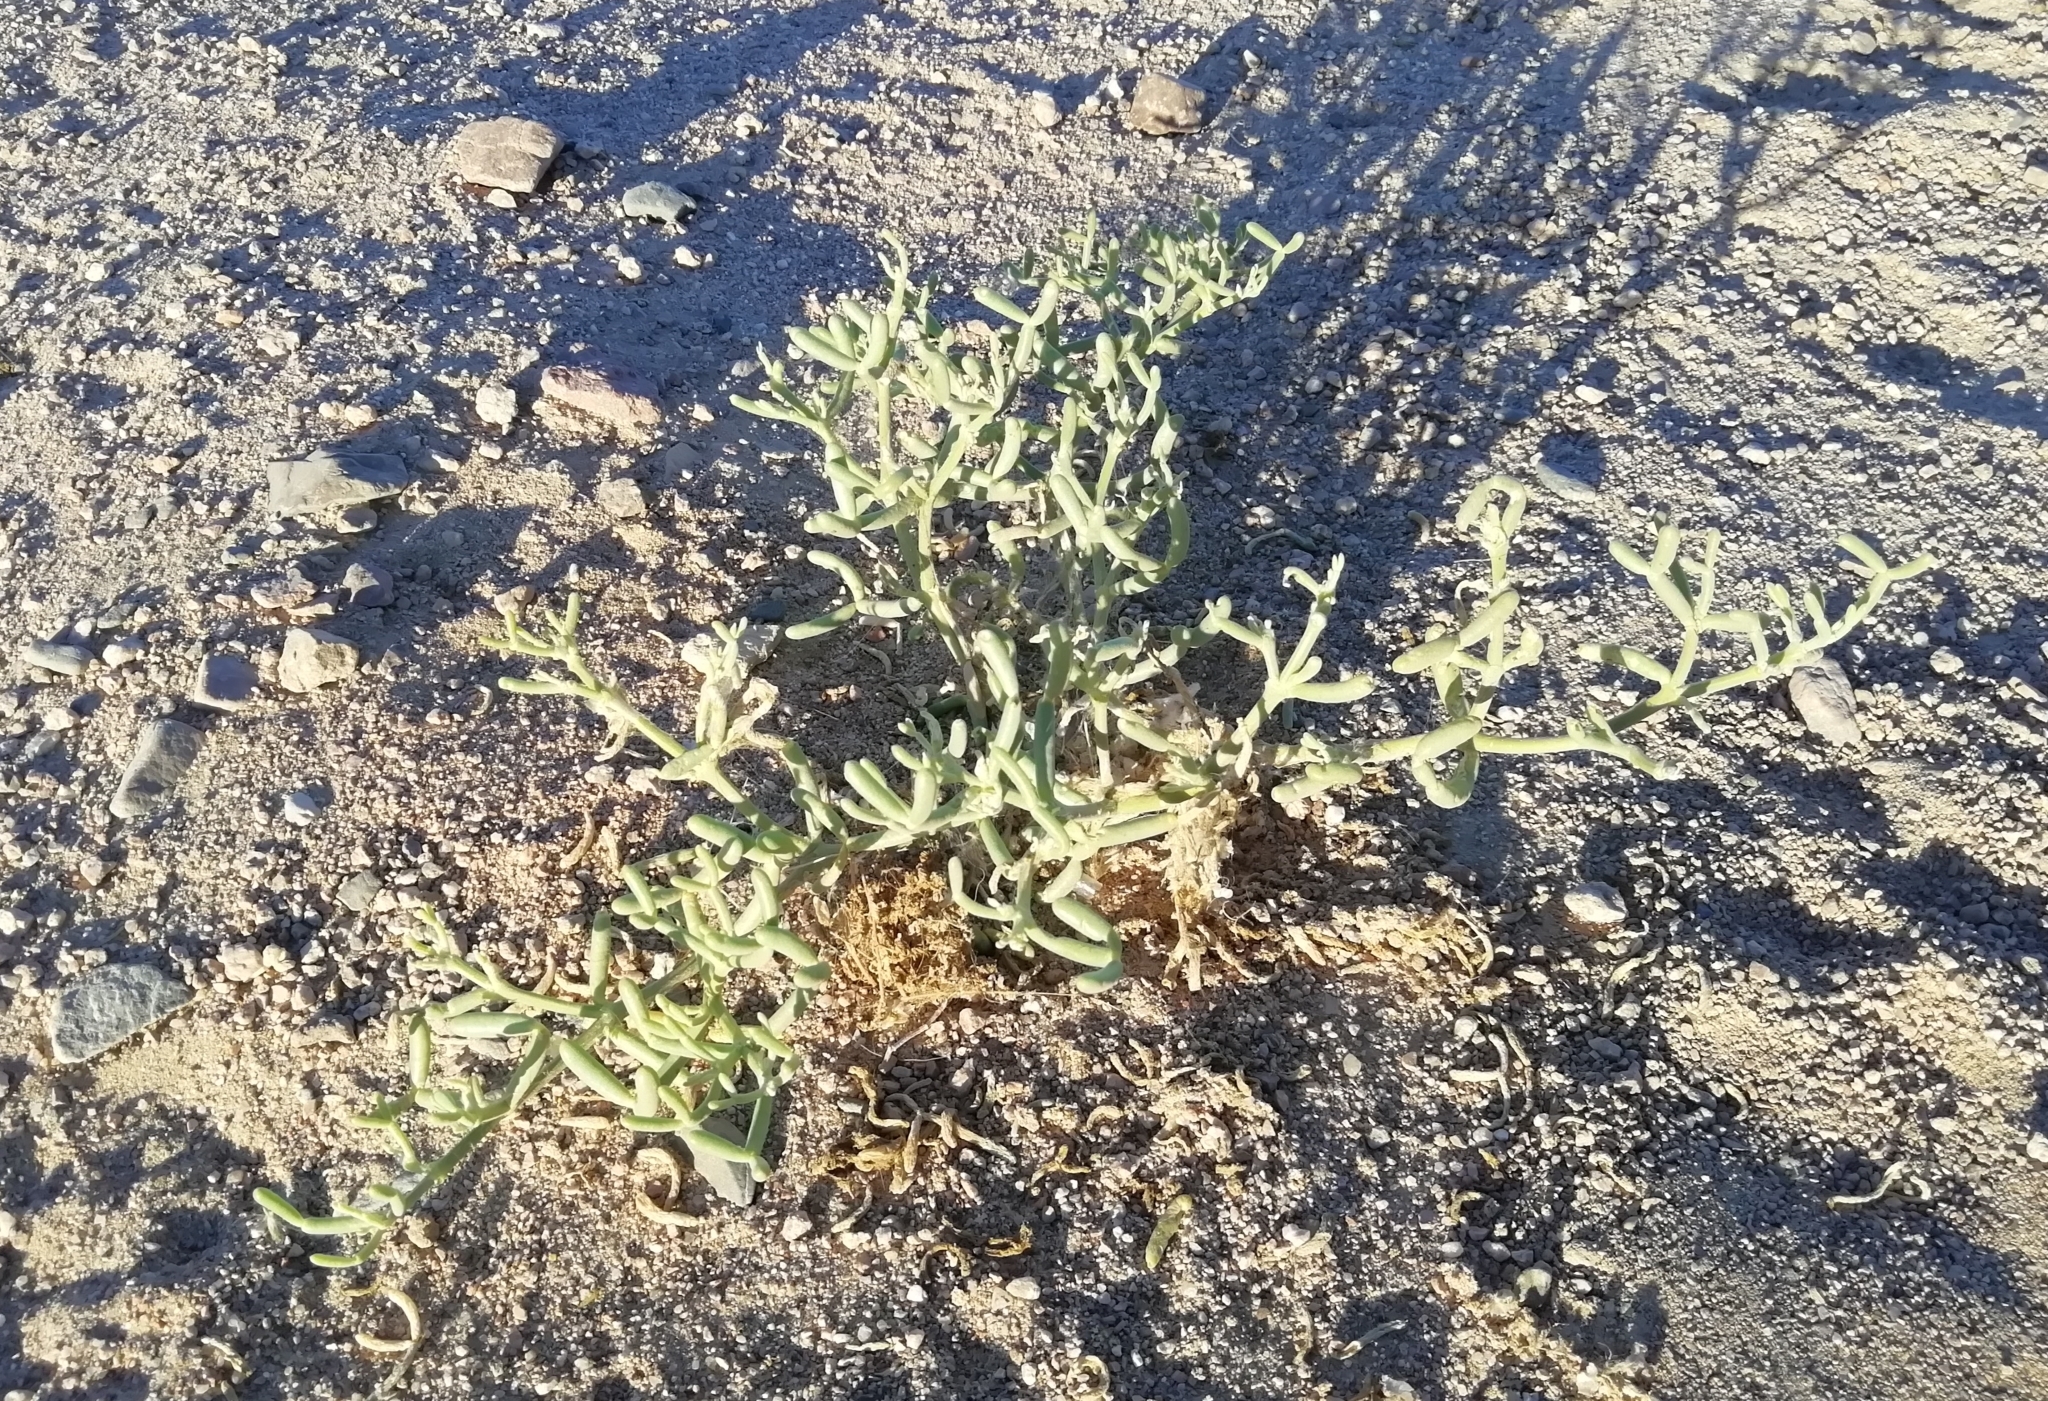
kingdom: Plantae
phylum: Tracheophyta
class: Magnoliopsida
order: Zygophyllales
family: Zygophyllaceae
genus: Tetraena
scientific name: Tetraena coccinea
